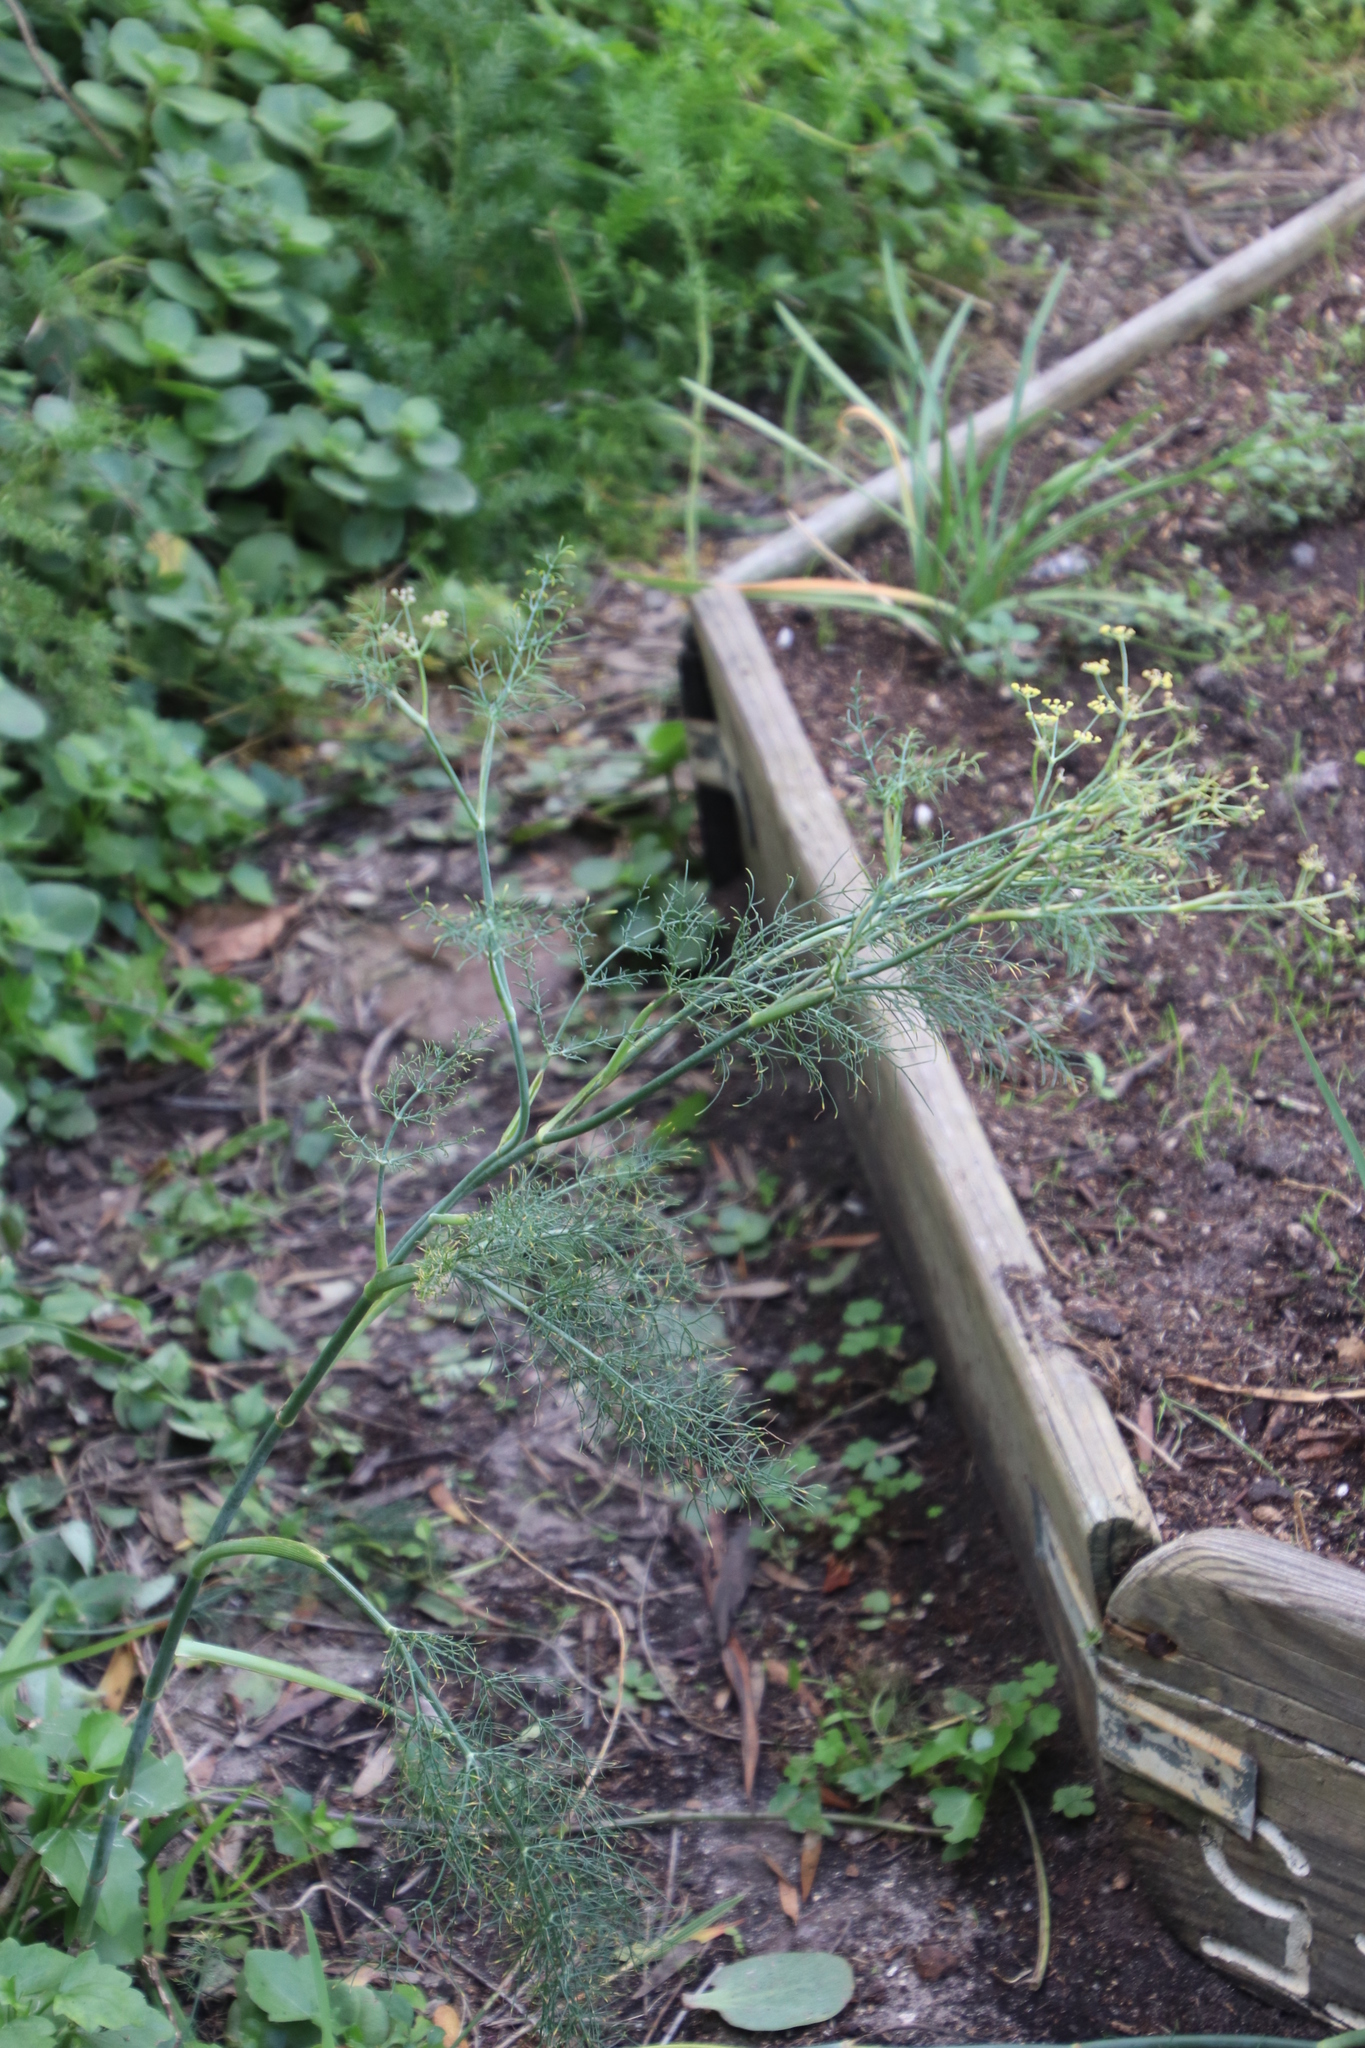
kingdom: Plantae
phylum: Tracheophyta
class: Magnoliopsida
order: Apiales
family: Apiaceae
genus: Foeniculum
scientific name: Foeniculum vulgare
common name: Fennel
